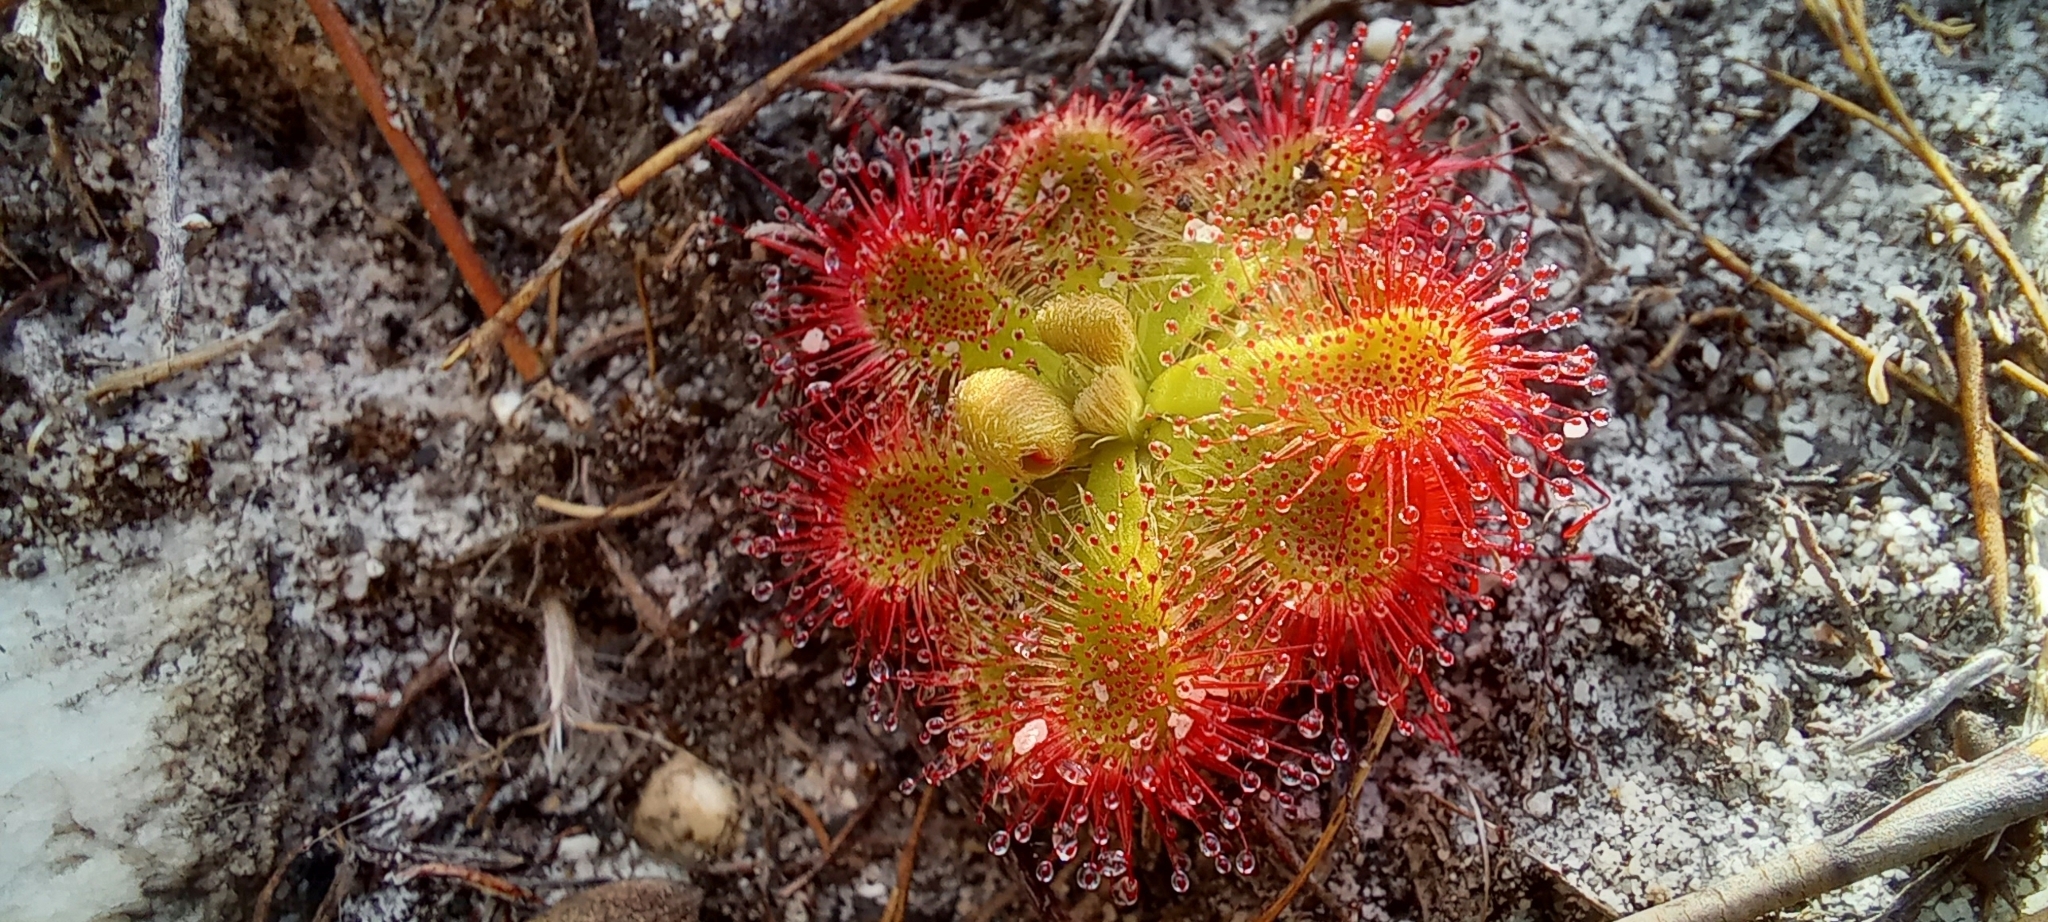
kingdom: Plantae
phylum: Tracheophyta
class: Magnoliopsida
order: Caryophyllales
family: Droseraceae
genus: Drosera
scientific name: Drosera xerophila
